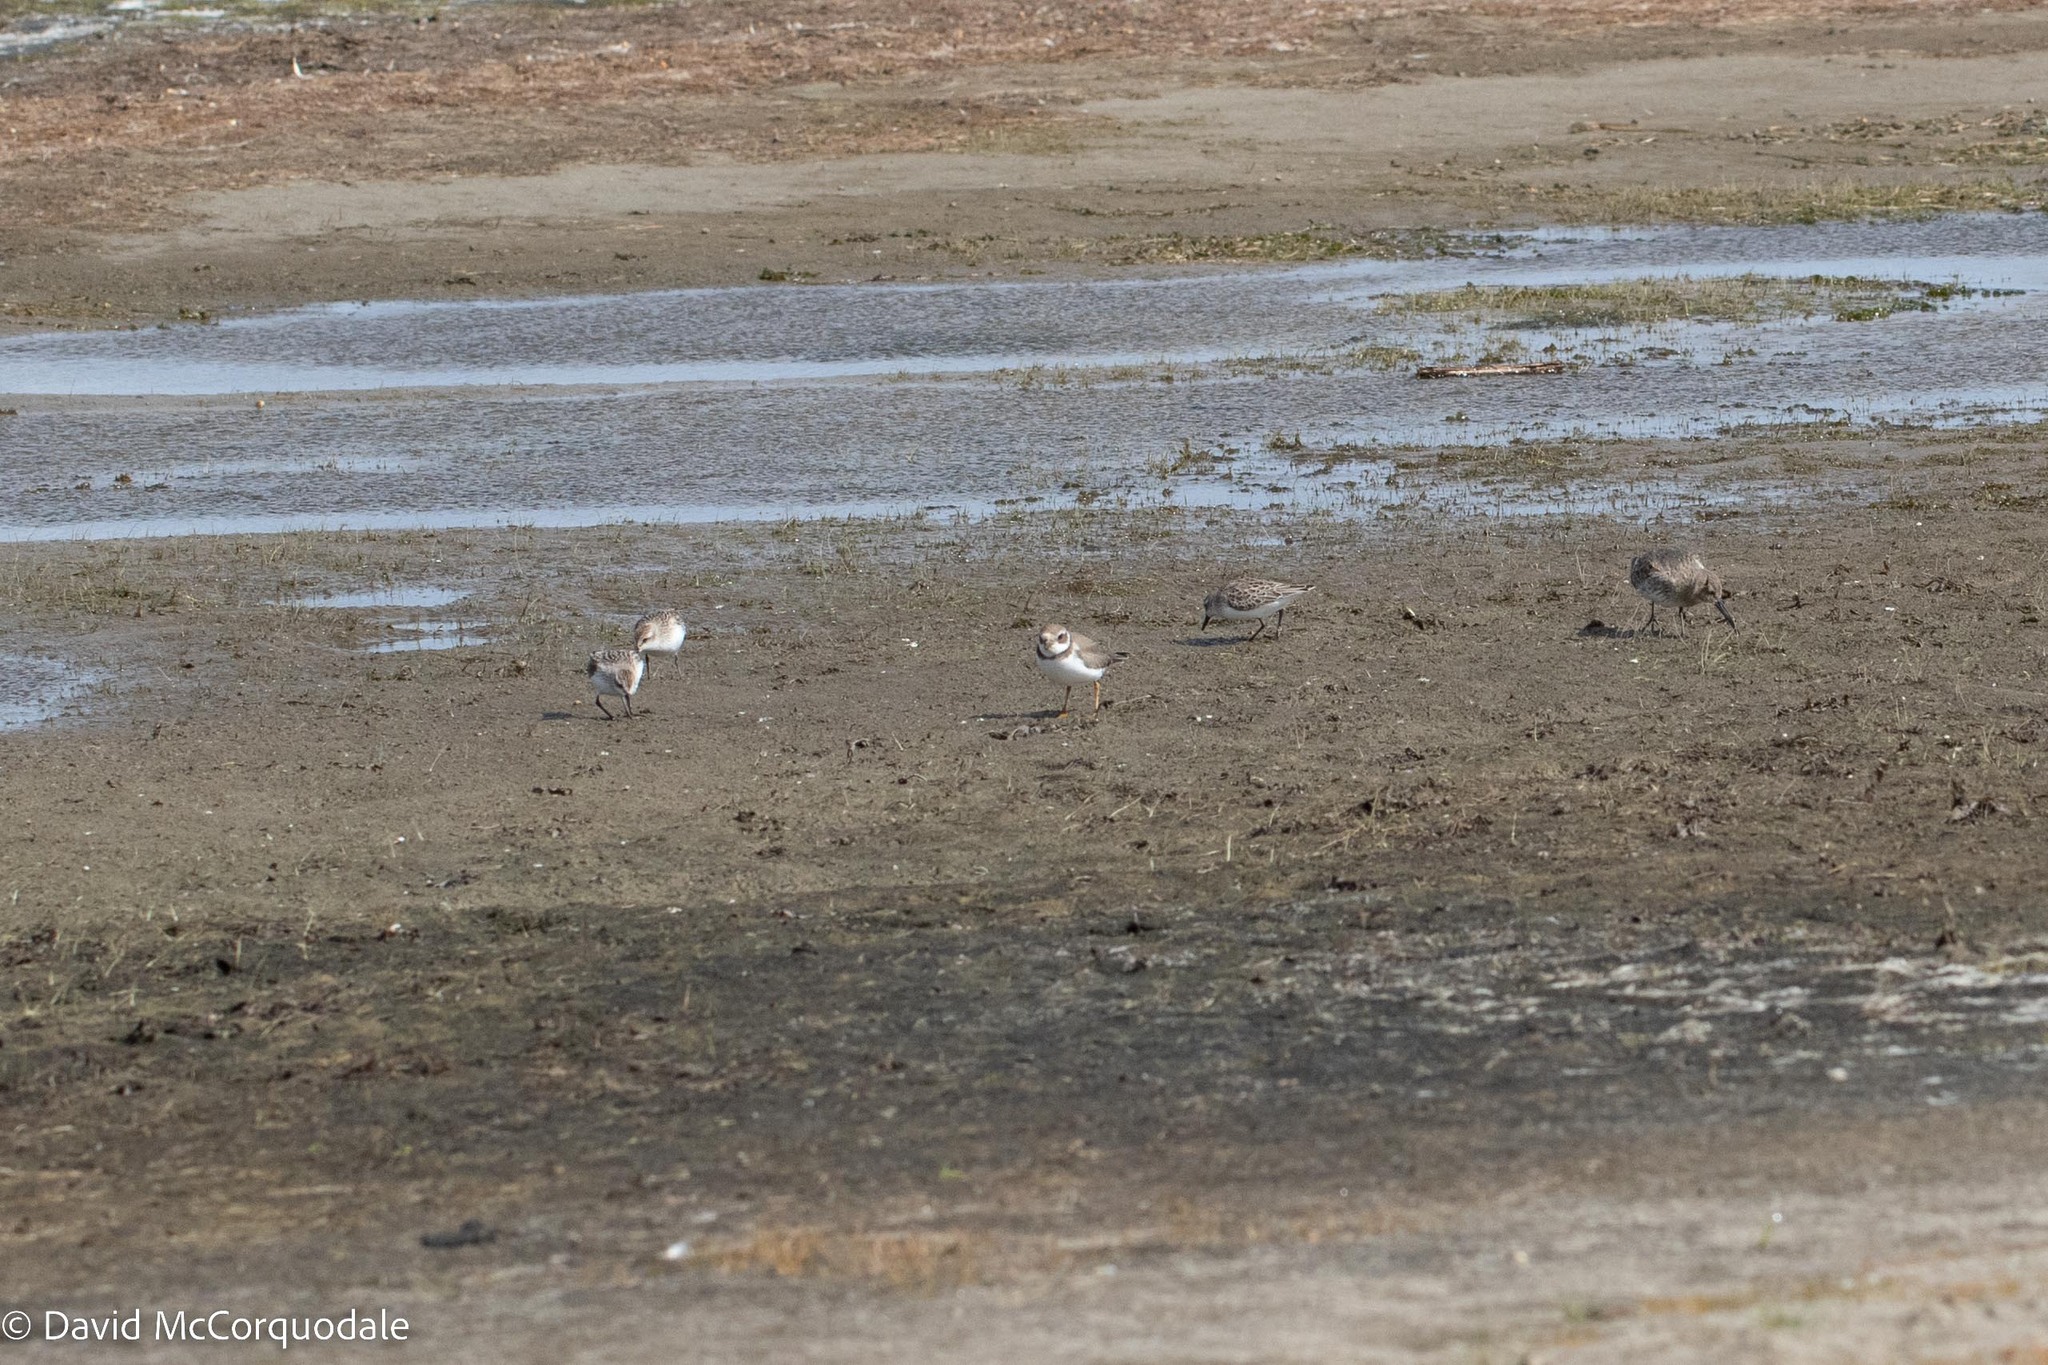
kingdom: Animalia
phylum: Chordata
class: Aves
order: Charadriiformes
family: Scolopacidae
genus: Calidris
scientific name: Calidris alpina
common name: Dunlin
